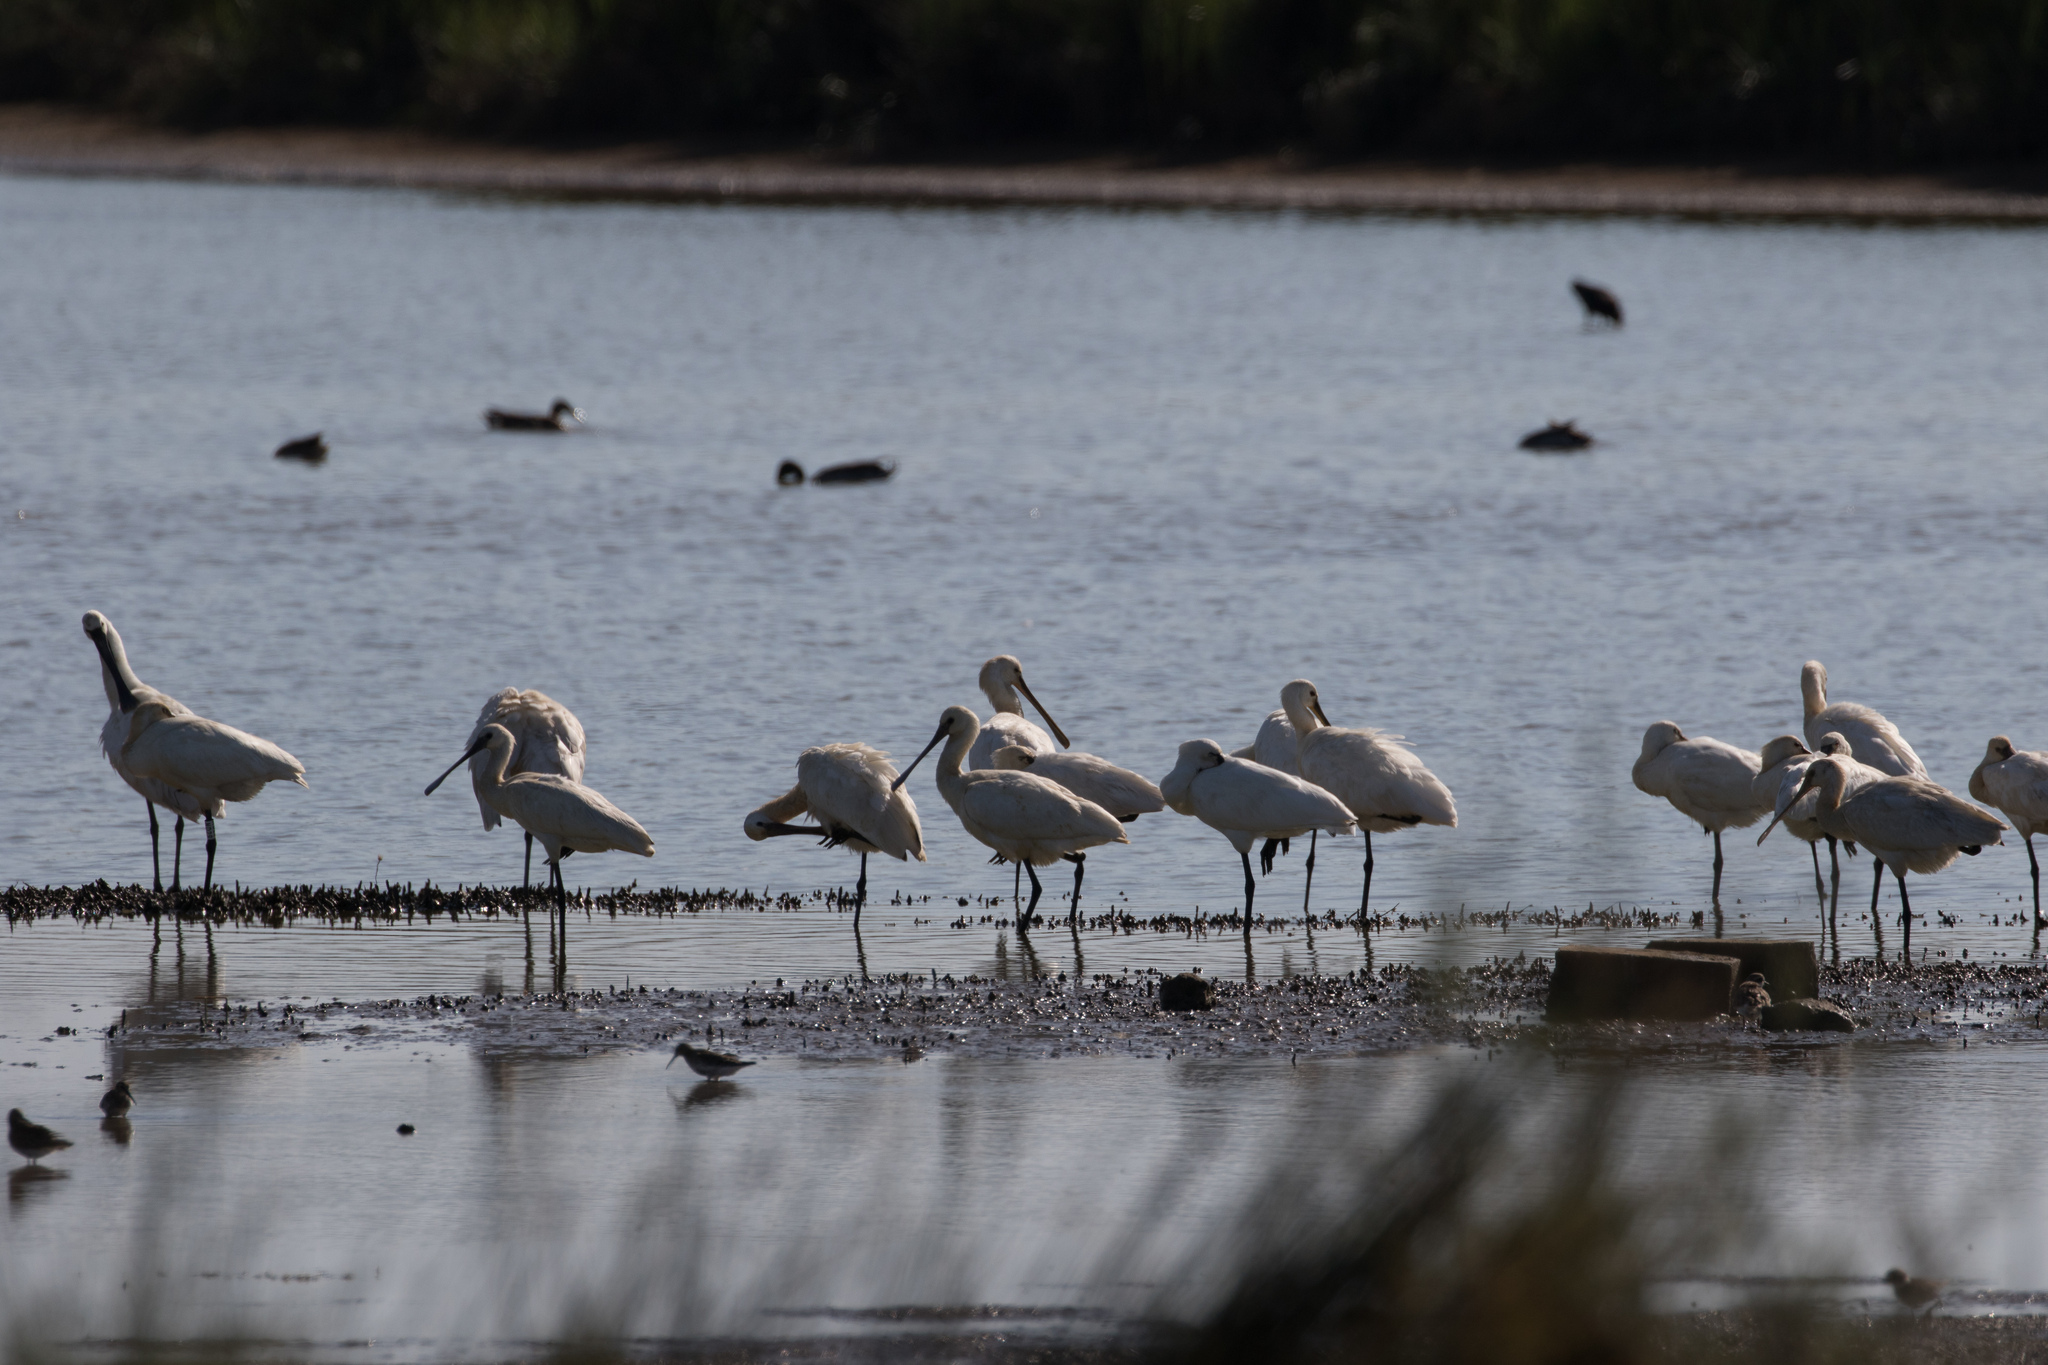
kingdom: Animalia
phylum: Chordata
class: Aves
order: Pelecaniformes
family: Threskiornithidae
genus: Platalea
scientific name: Platalea leucorodia
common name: Eurasian spoonbill
